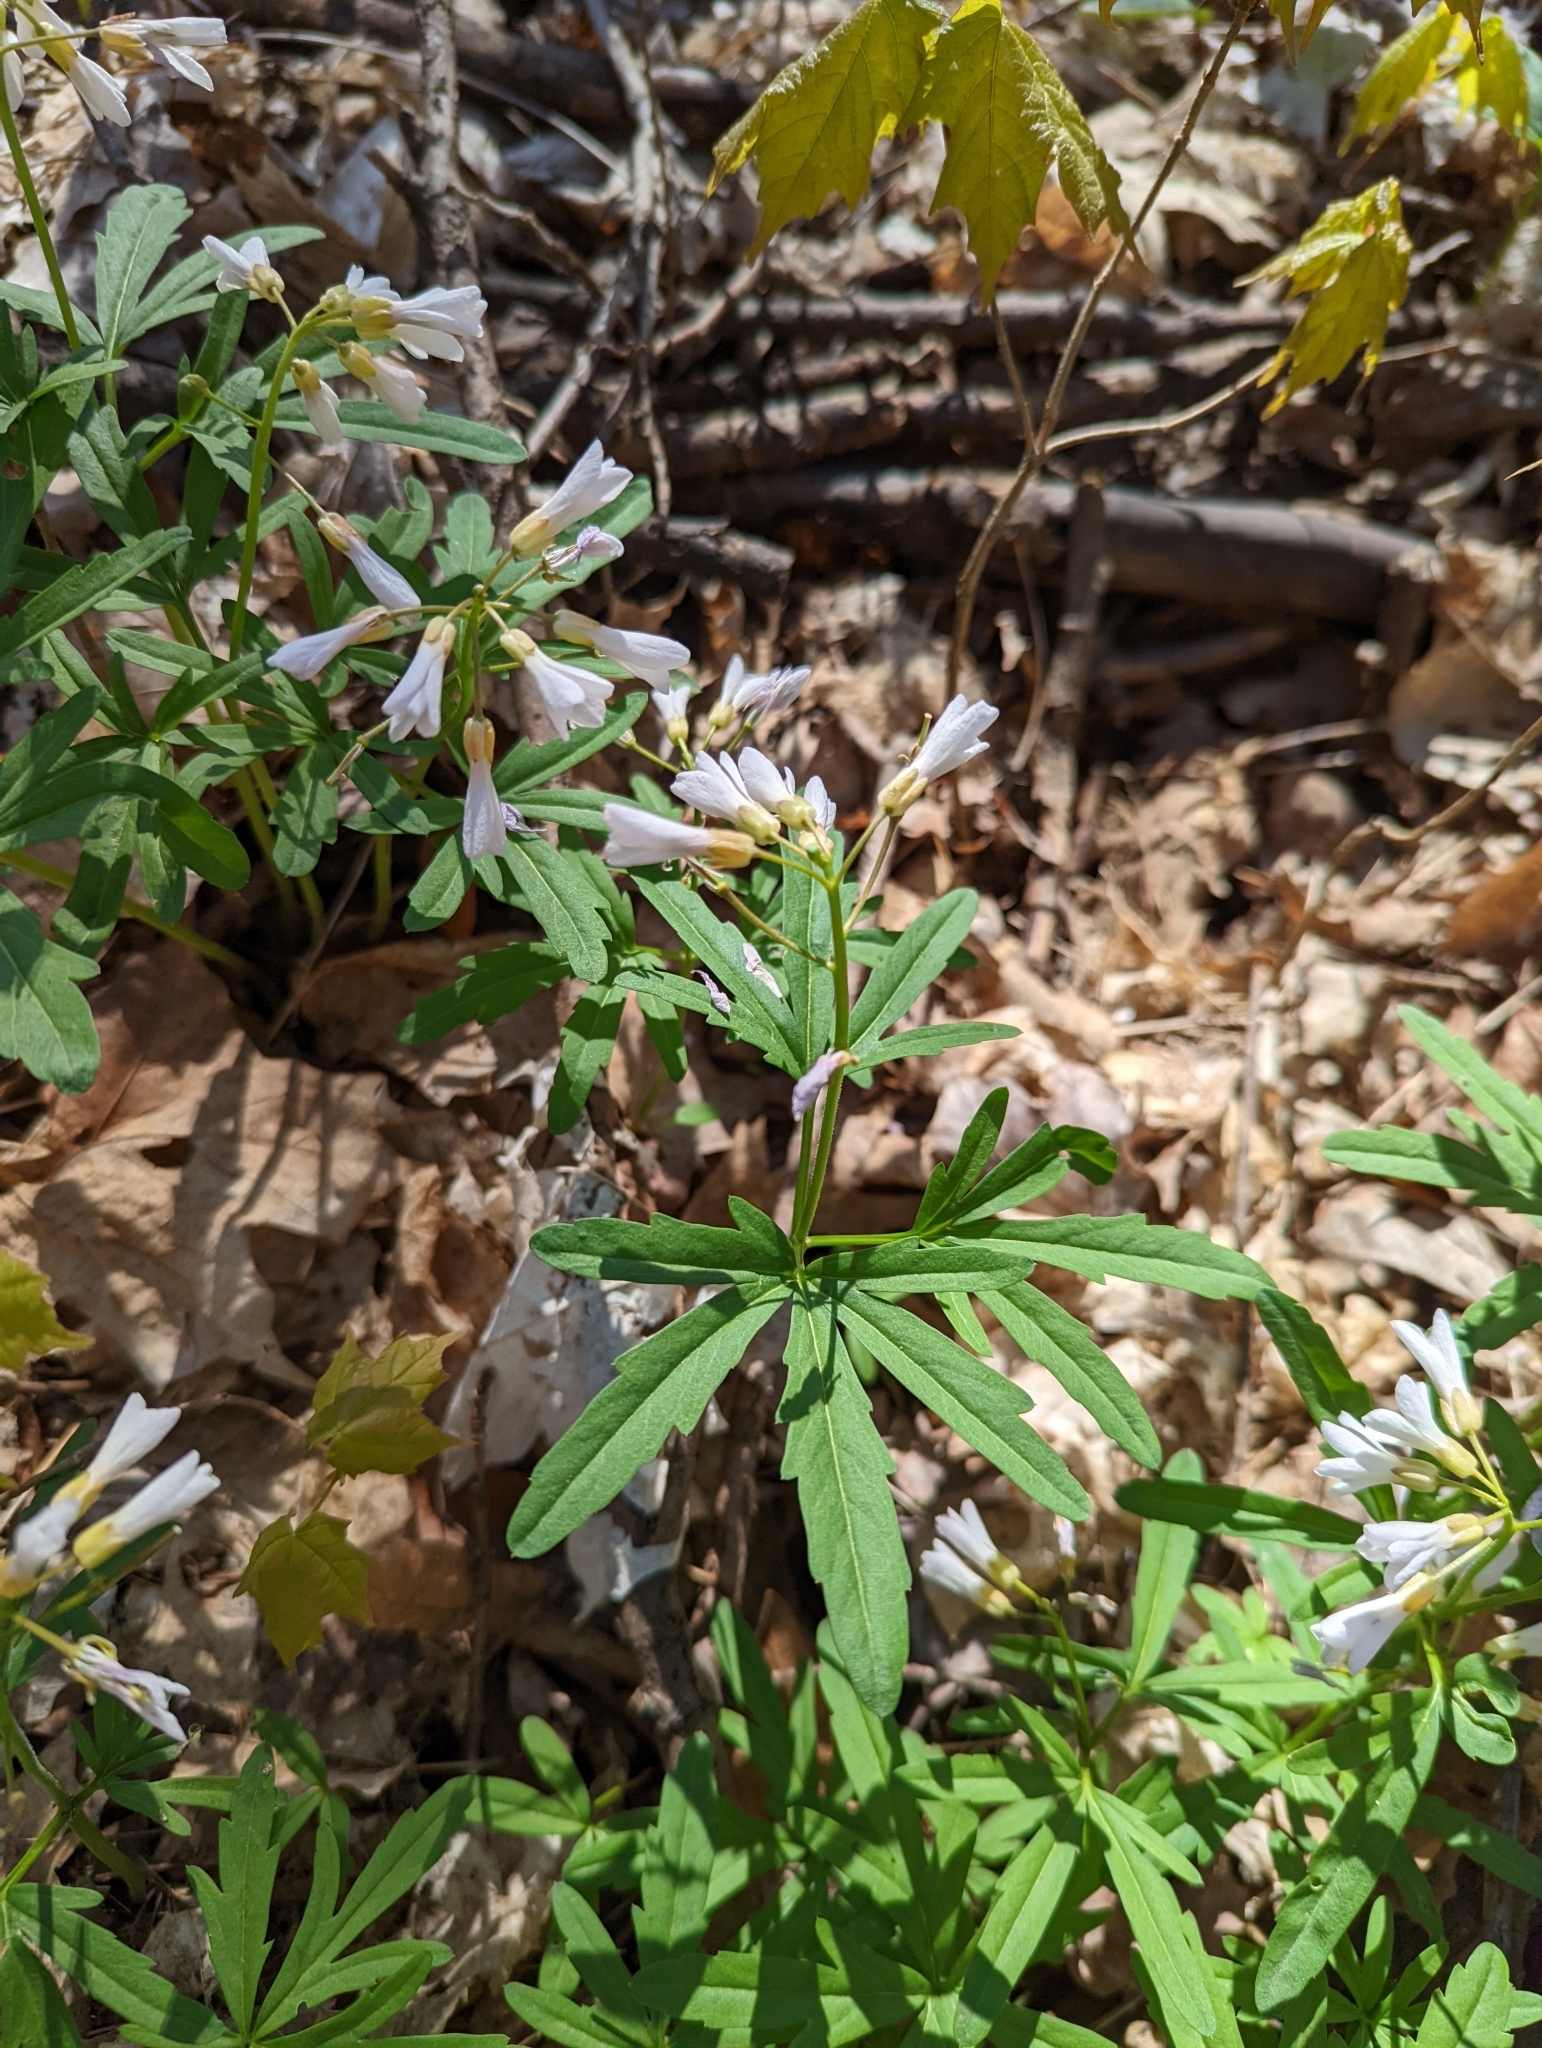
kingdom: Plantae
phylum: Tracheophyta
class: Magnoliopsida
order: Brassicales
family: Brassicaceae
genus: Cardamine
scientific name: Cardamine concatenata
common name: Cut-leaf toothcup
